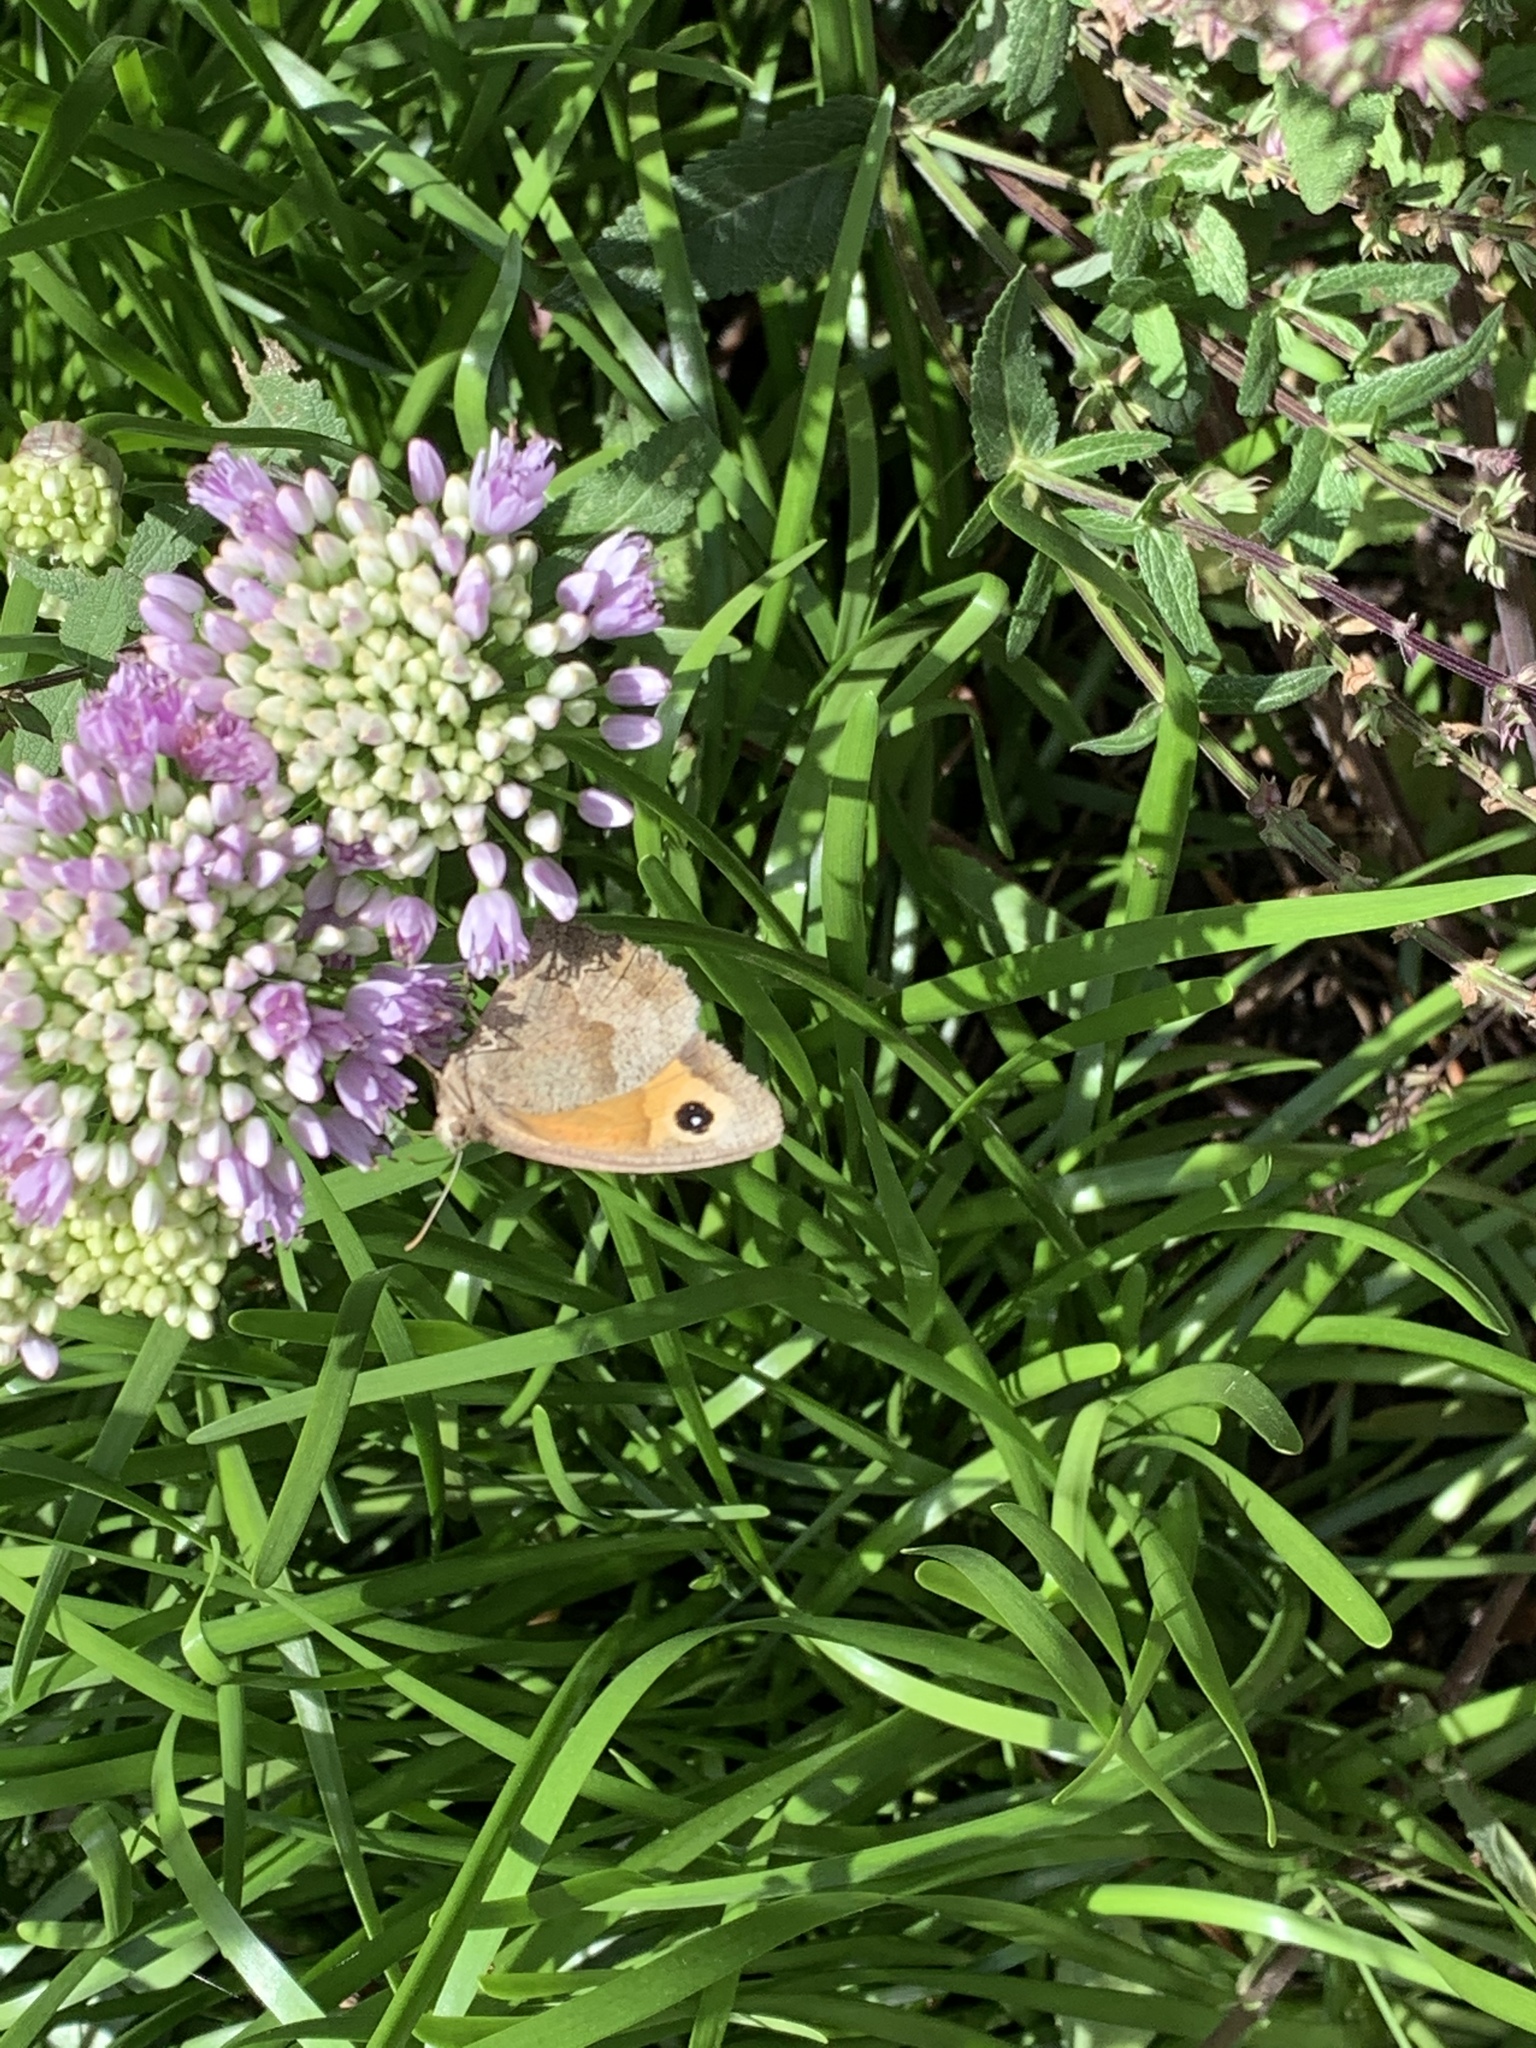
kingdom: Animalia
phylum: Arthropoda
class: Insecta
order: Lepidoptera
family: Nymphalidae
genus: Maniola
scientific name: Maniola jurtina
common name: Meadow brown
